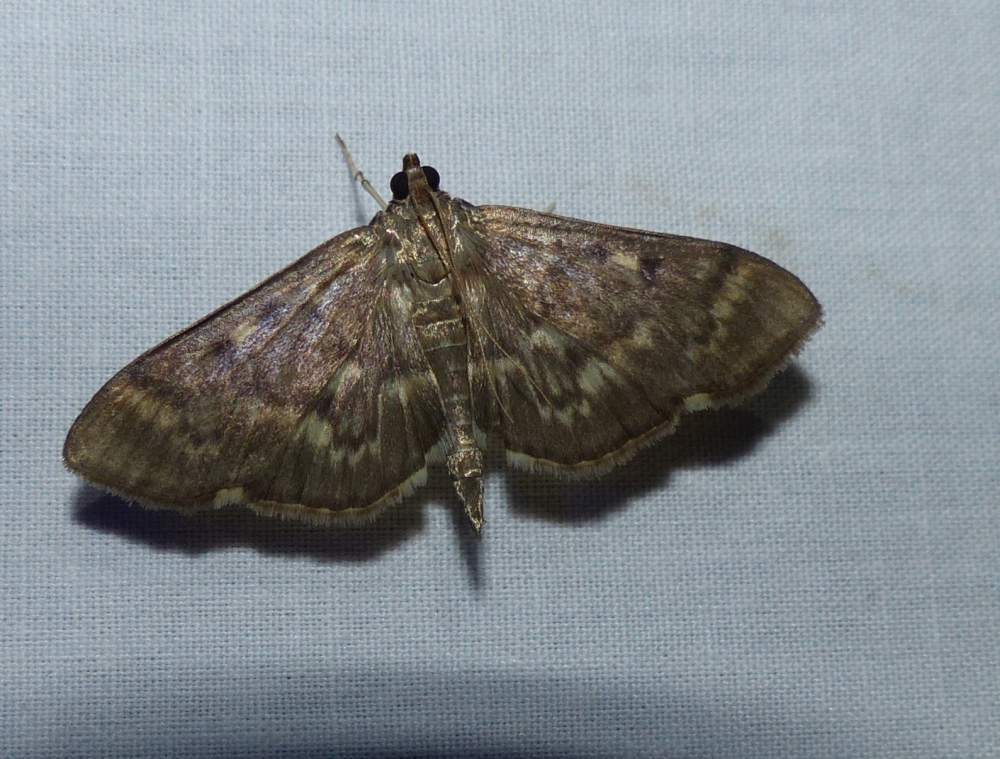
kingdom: Animalia
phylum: Arthropoda
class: Insecta
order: Lepidoptera
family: Crambidae
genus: Herpetogramma
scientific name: Herpetogramma aeglealis
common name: Serpentine webworm moth
